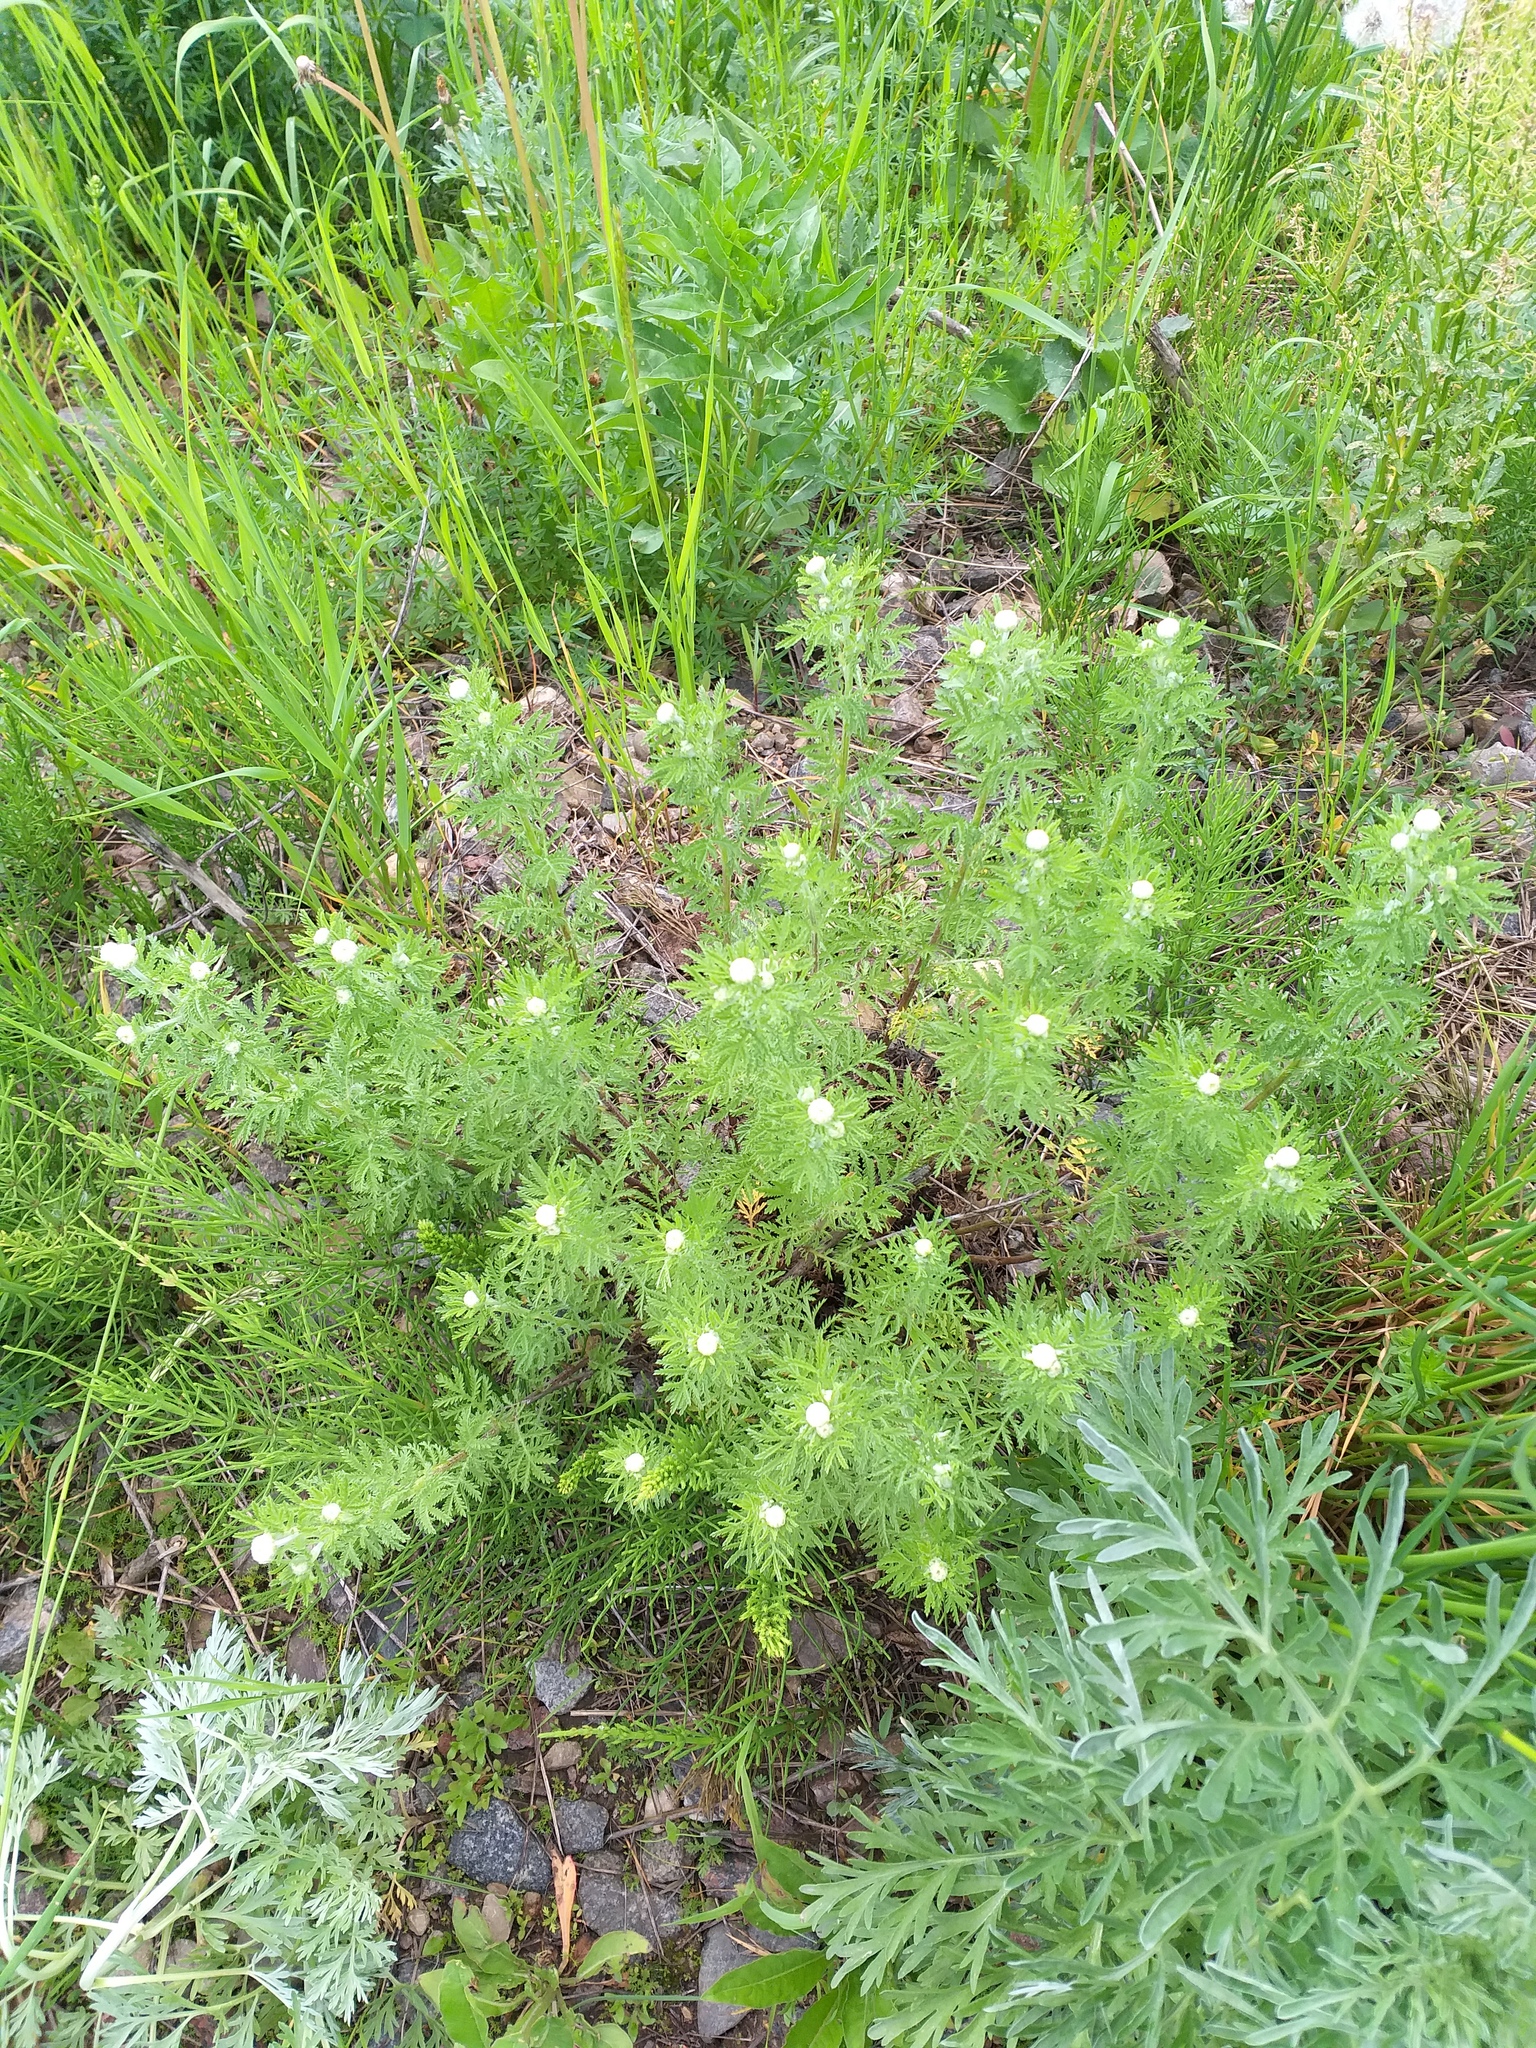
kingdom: Plantae
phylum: Tracheophyta
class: Magnoliopsida
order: Asterales
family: Asteraceae
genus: Cota
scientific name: Cota tinctoria
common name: Golden chamomile
